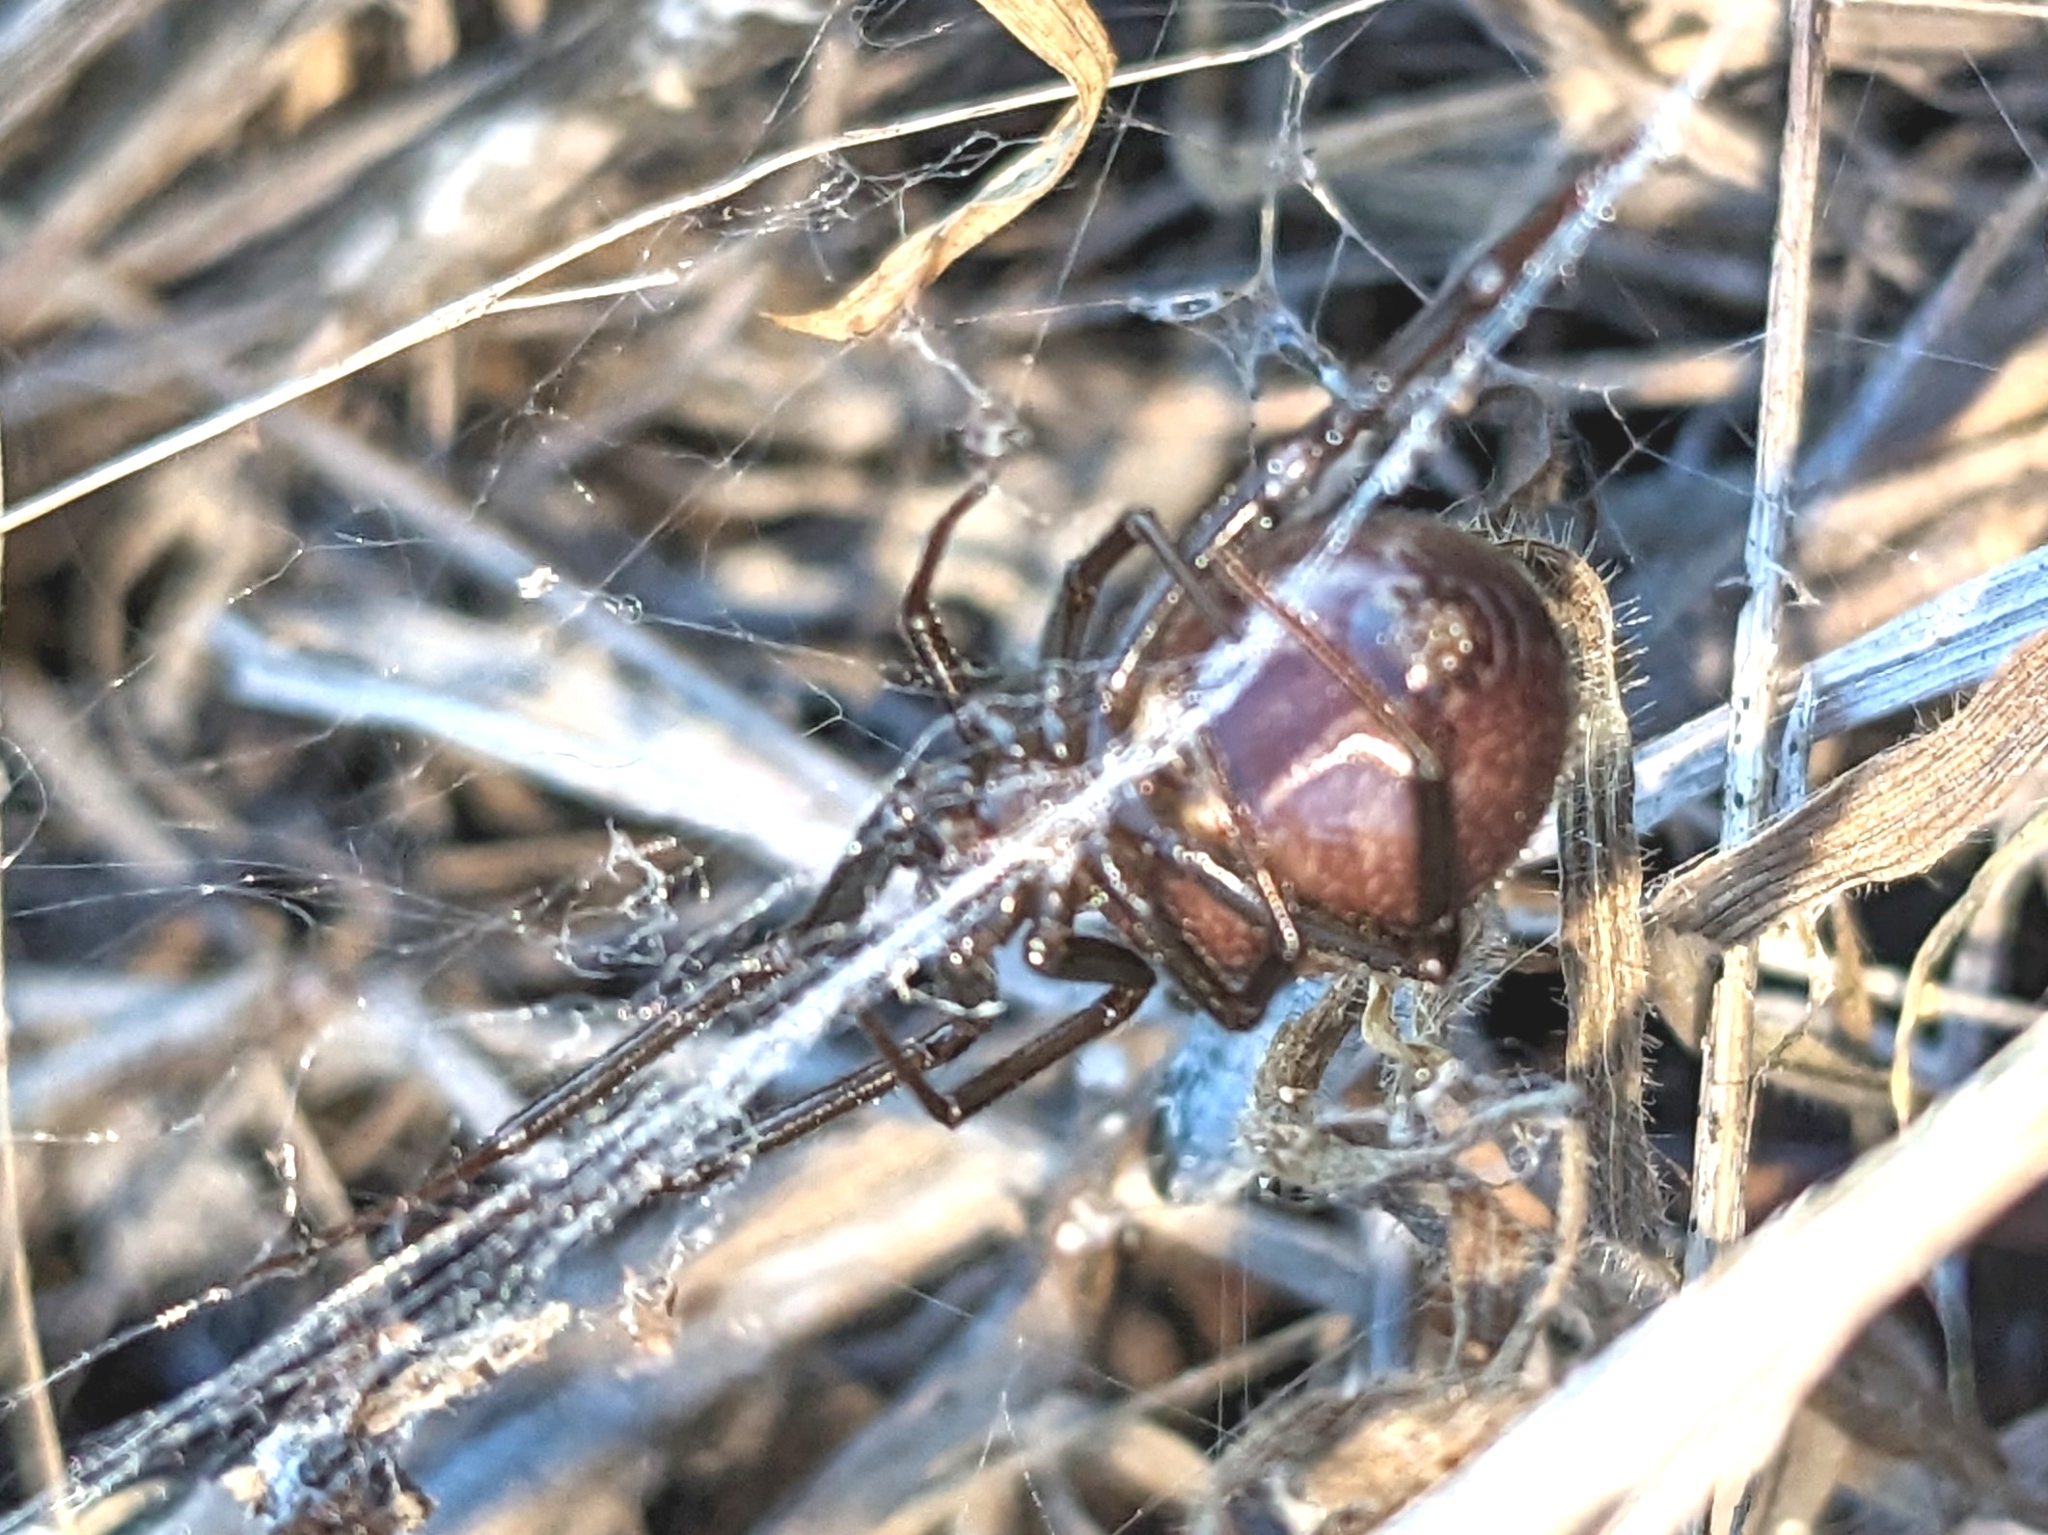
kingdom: Animalia
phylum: Arthropoda
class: Arachnida
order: Araneae
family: Theridiidae
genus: Steatoda
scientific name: Steatoda grossa
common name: False black widow
